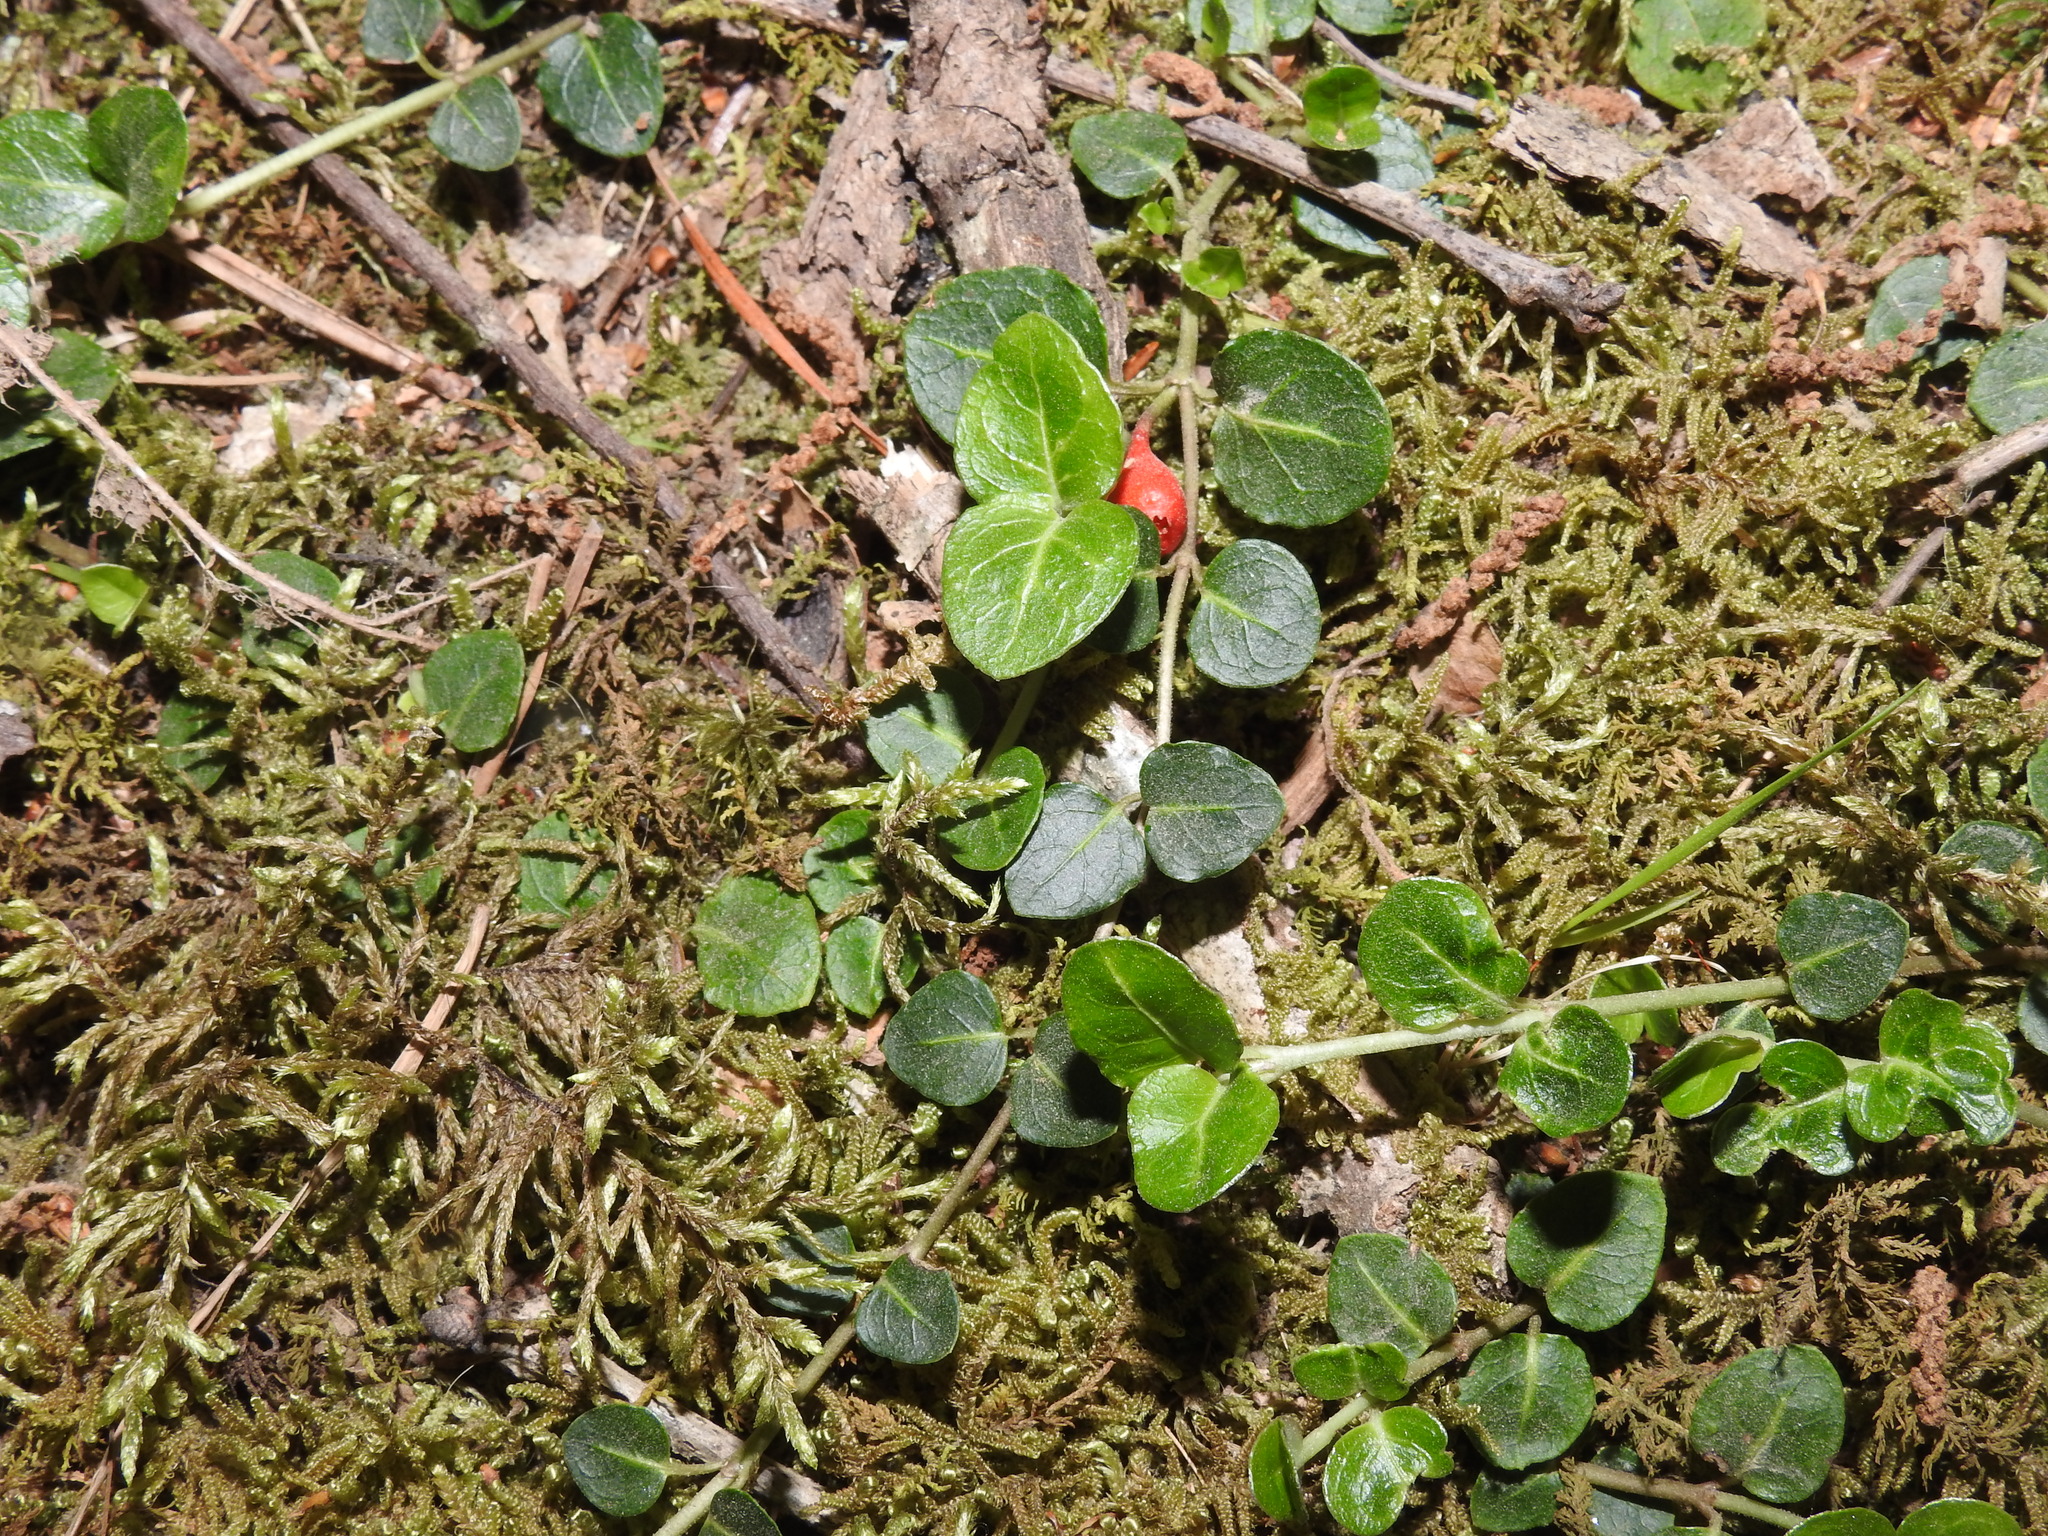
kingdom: Plantae
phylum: Tracheophyta
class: Magnoliopsida
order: Gentianales
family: Rubiaceae
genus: Mitchella
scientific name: Mitchella repens
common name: Partridge-berry
